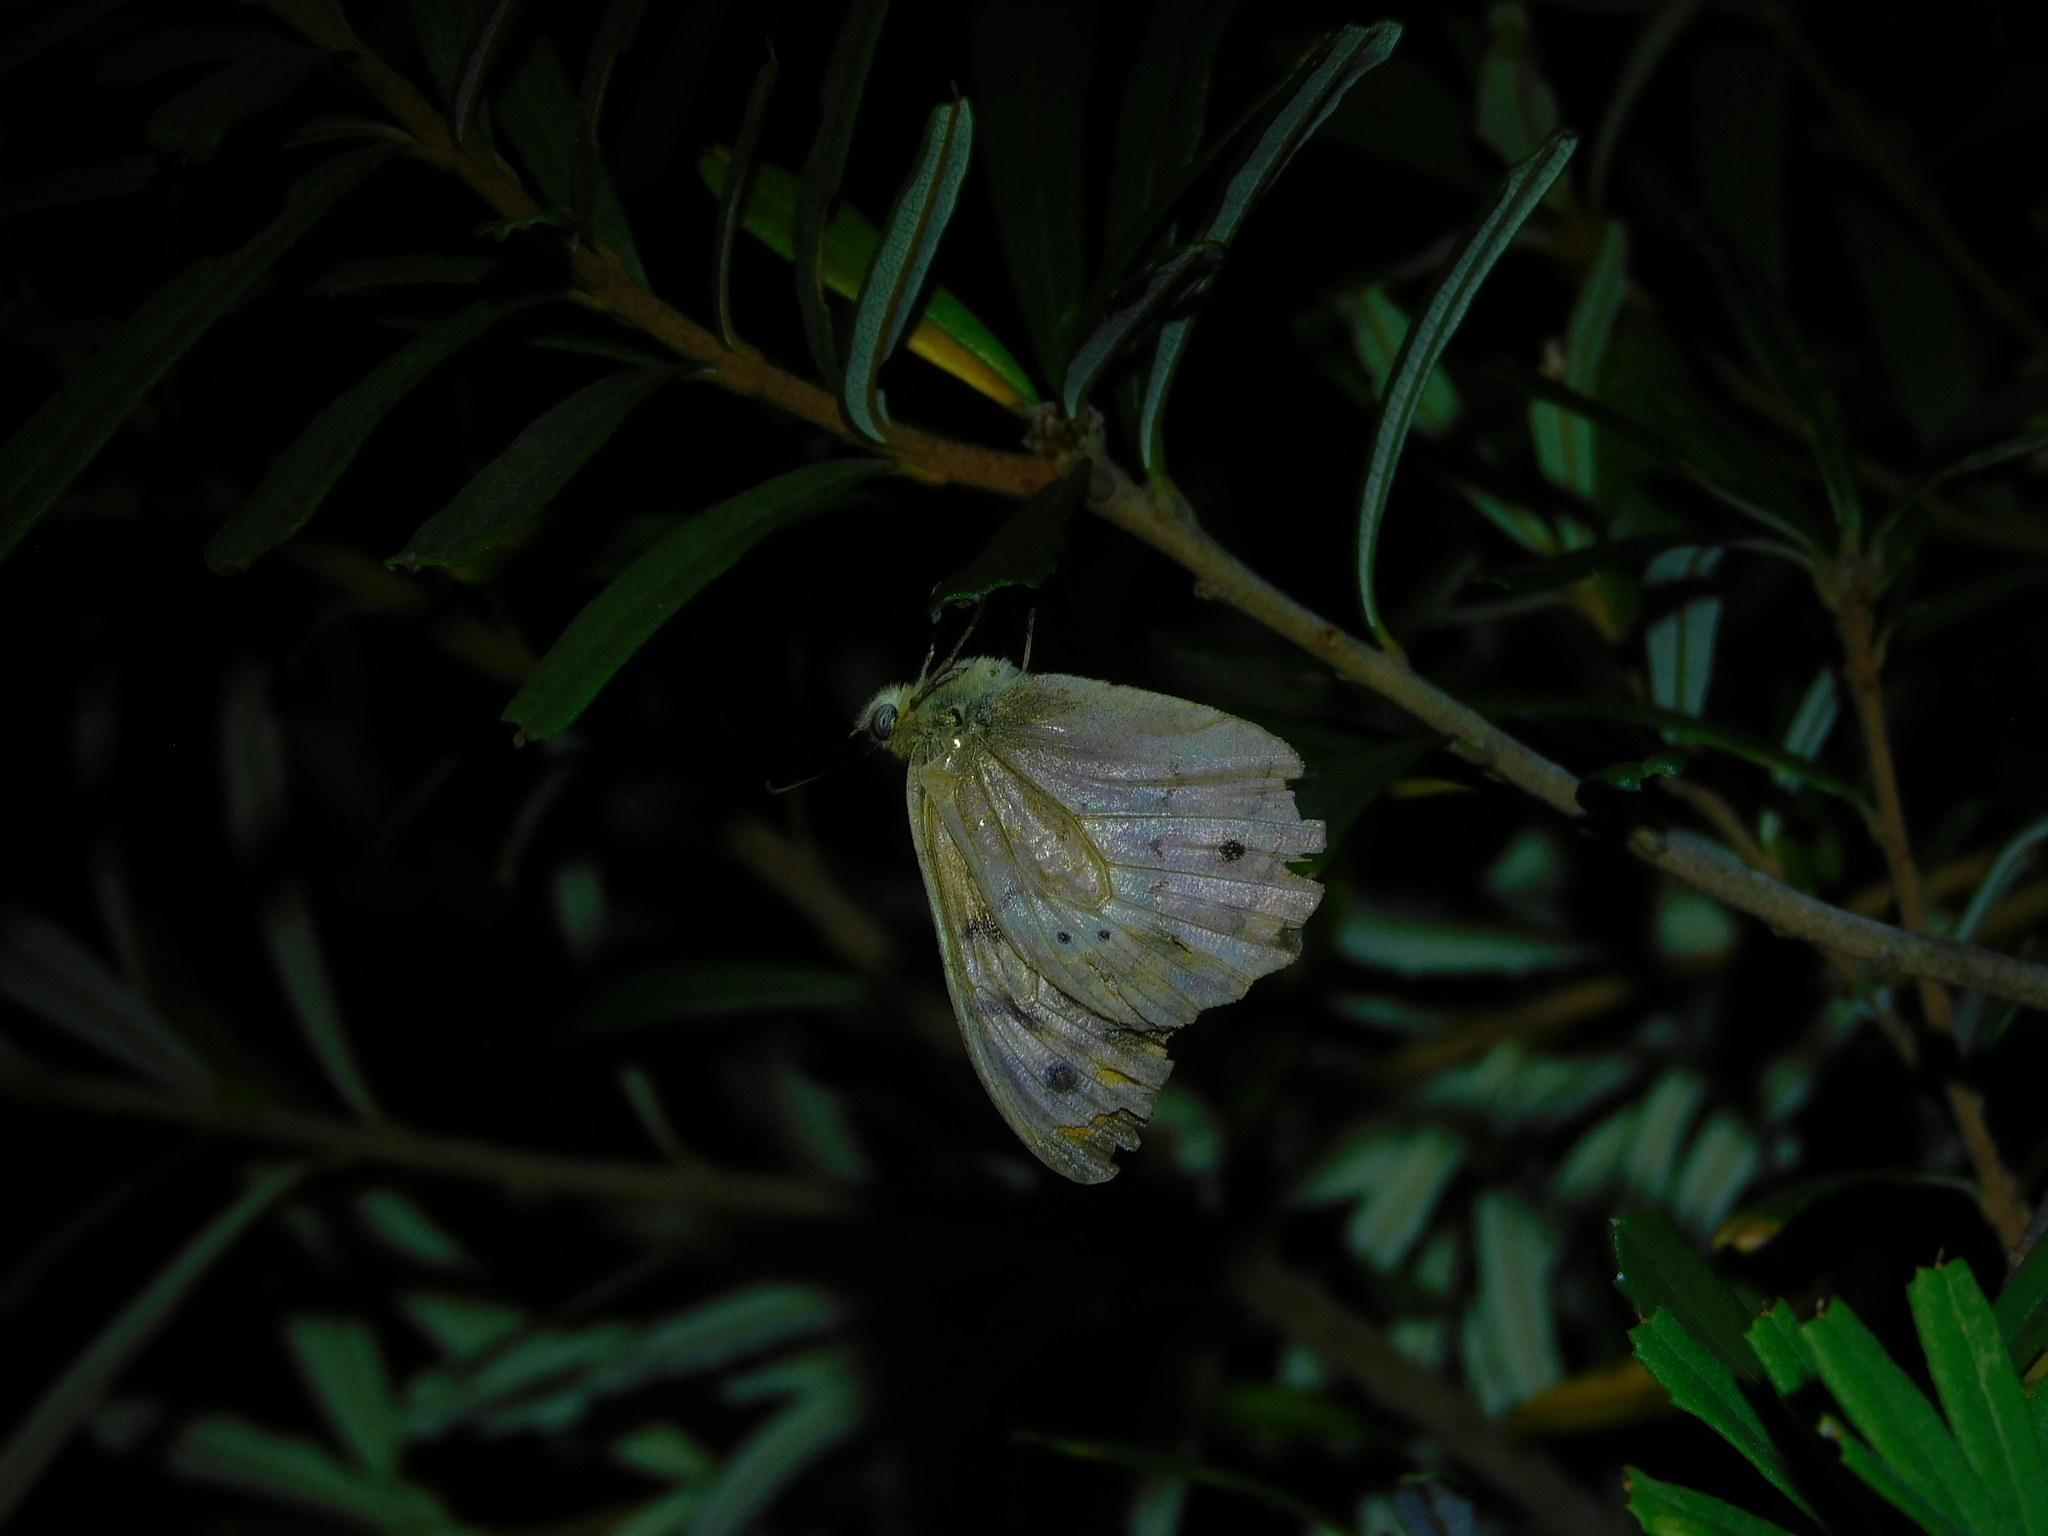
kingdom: Animalia
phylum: Arthropoda
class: Insecta
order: Lepidoptera
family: Nymphalidae
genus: Heteronympha
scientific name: Heteronympha merope
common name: Common brown
